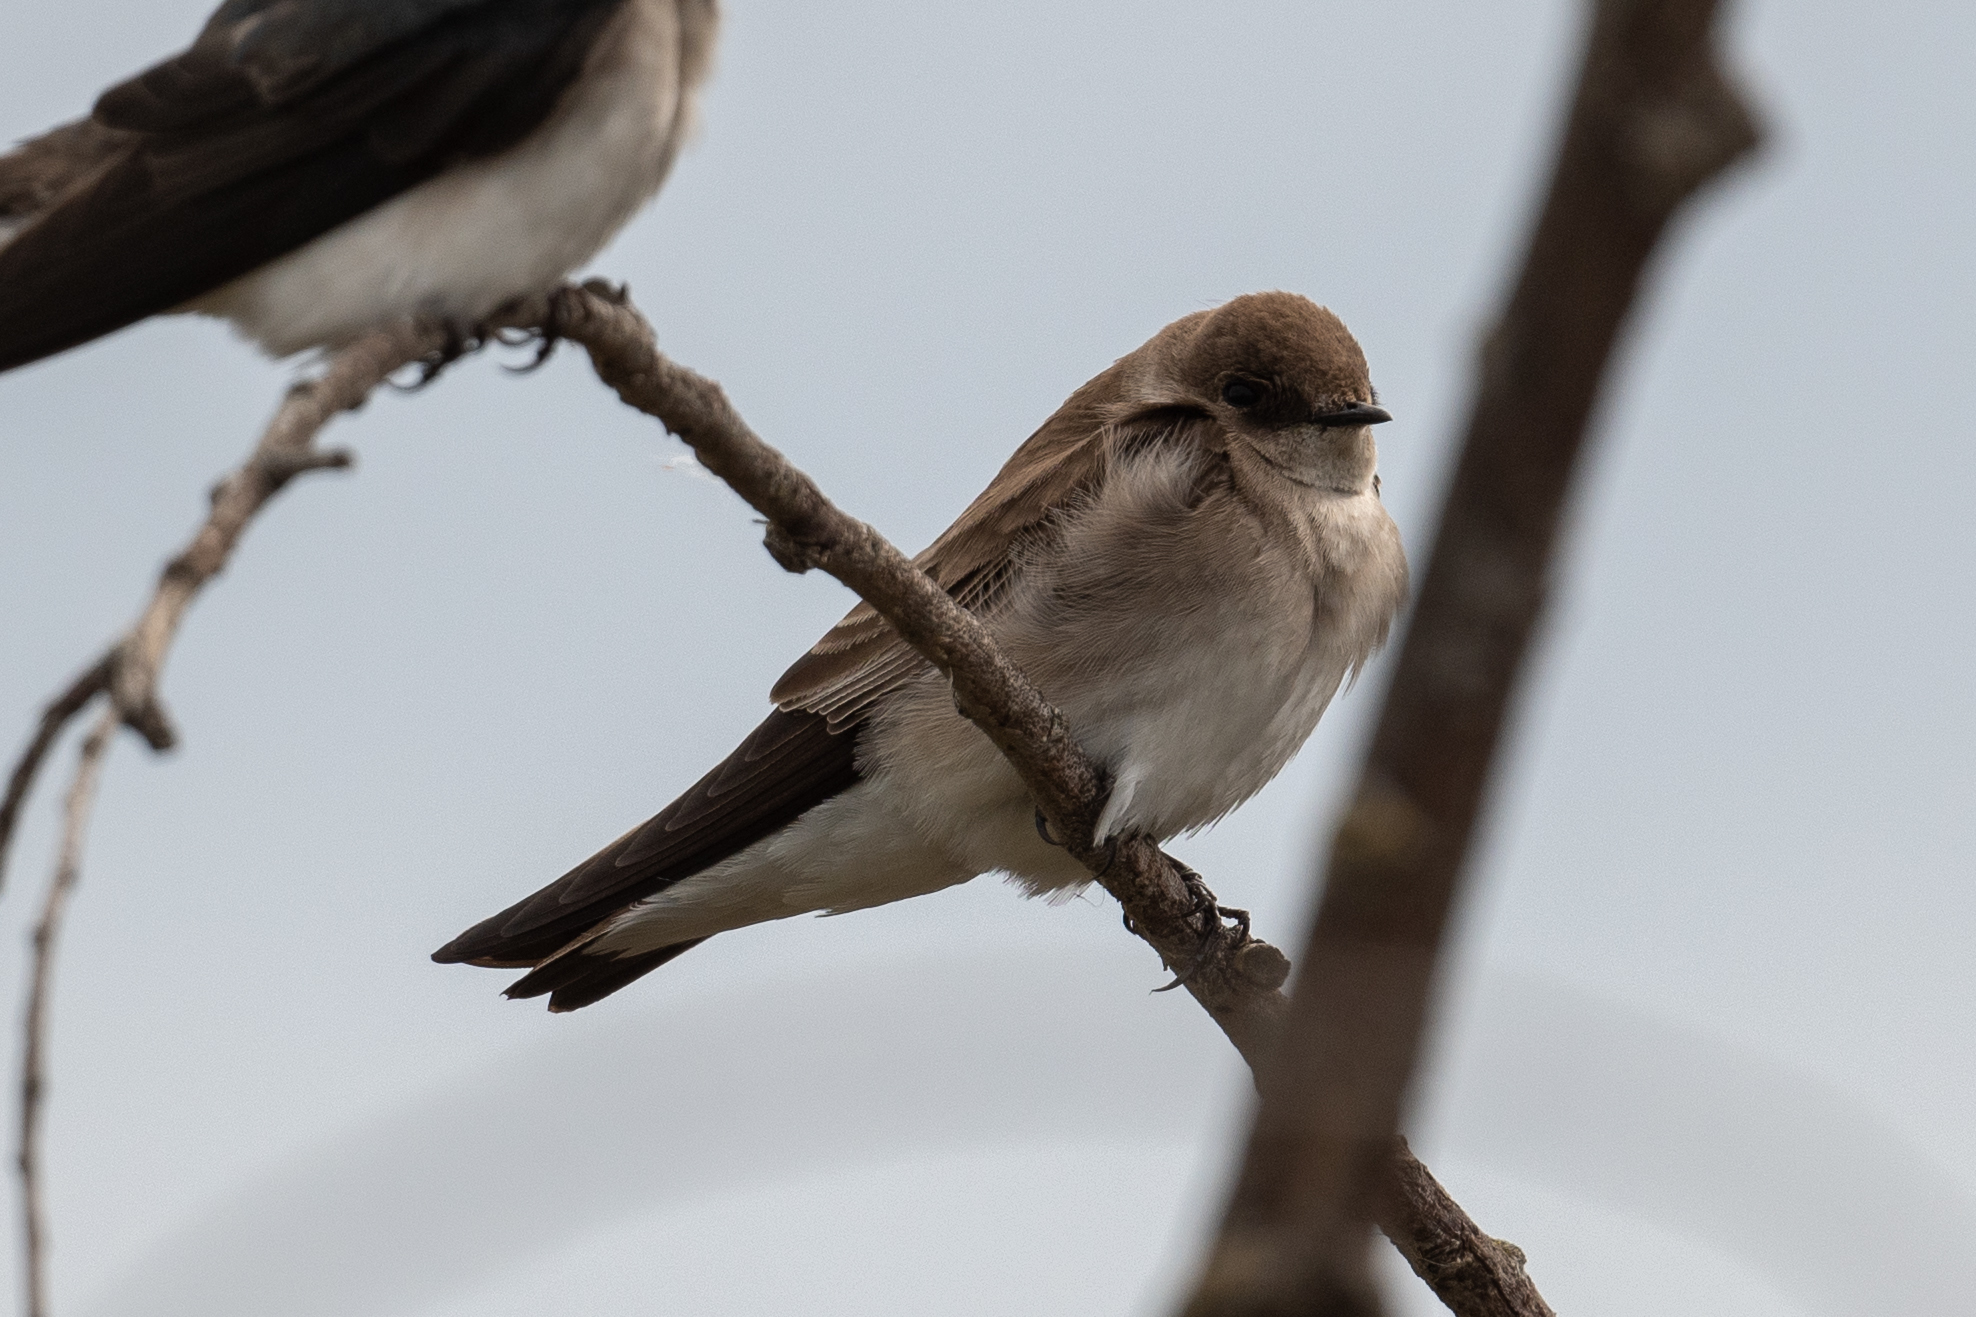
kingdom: Animalia
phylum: Chordata
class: Aves
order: Passeriformes
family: Hirundinidae
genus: Stelgidopteryx
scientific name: Stelgidopteryx serripennis
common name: Northern rough-winged swallow
